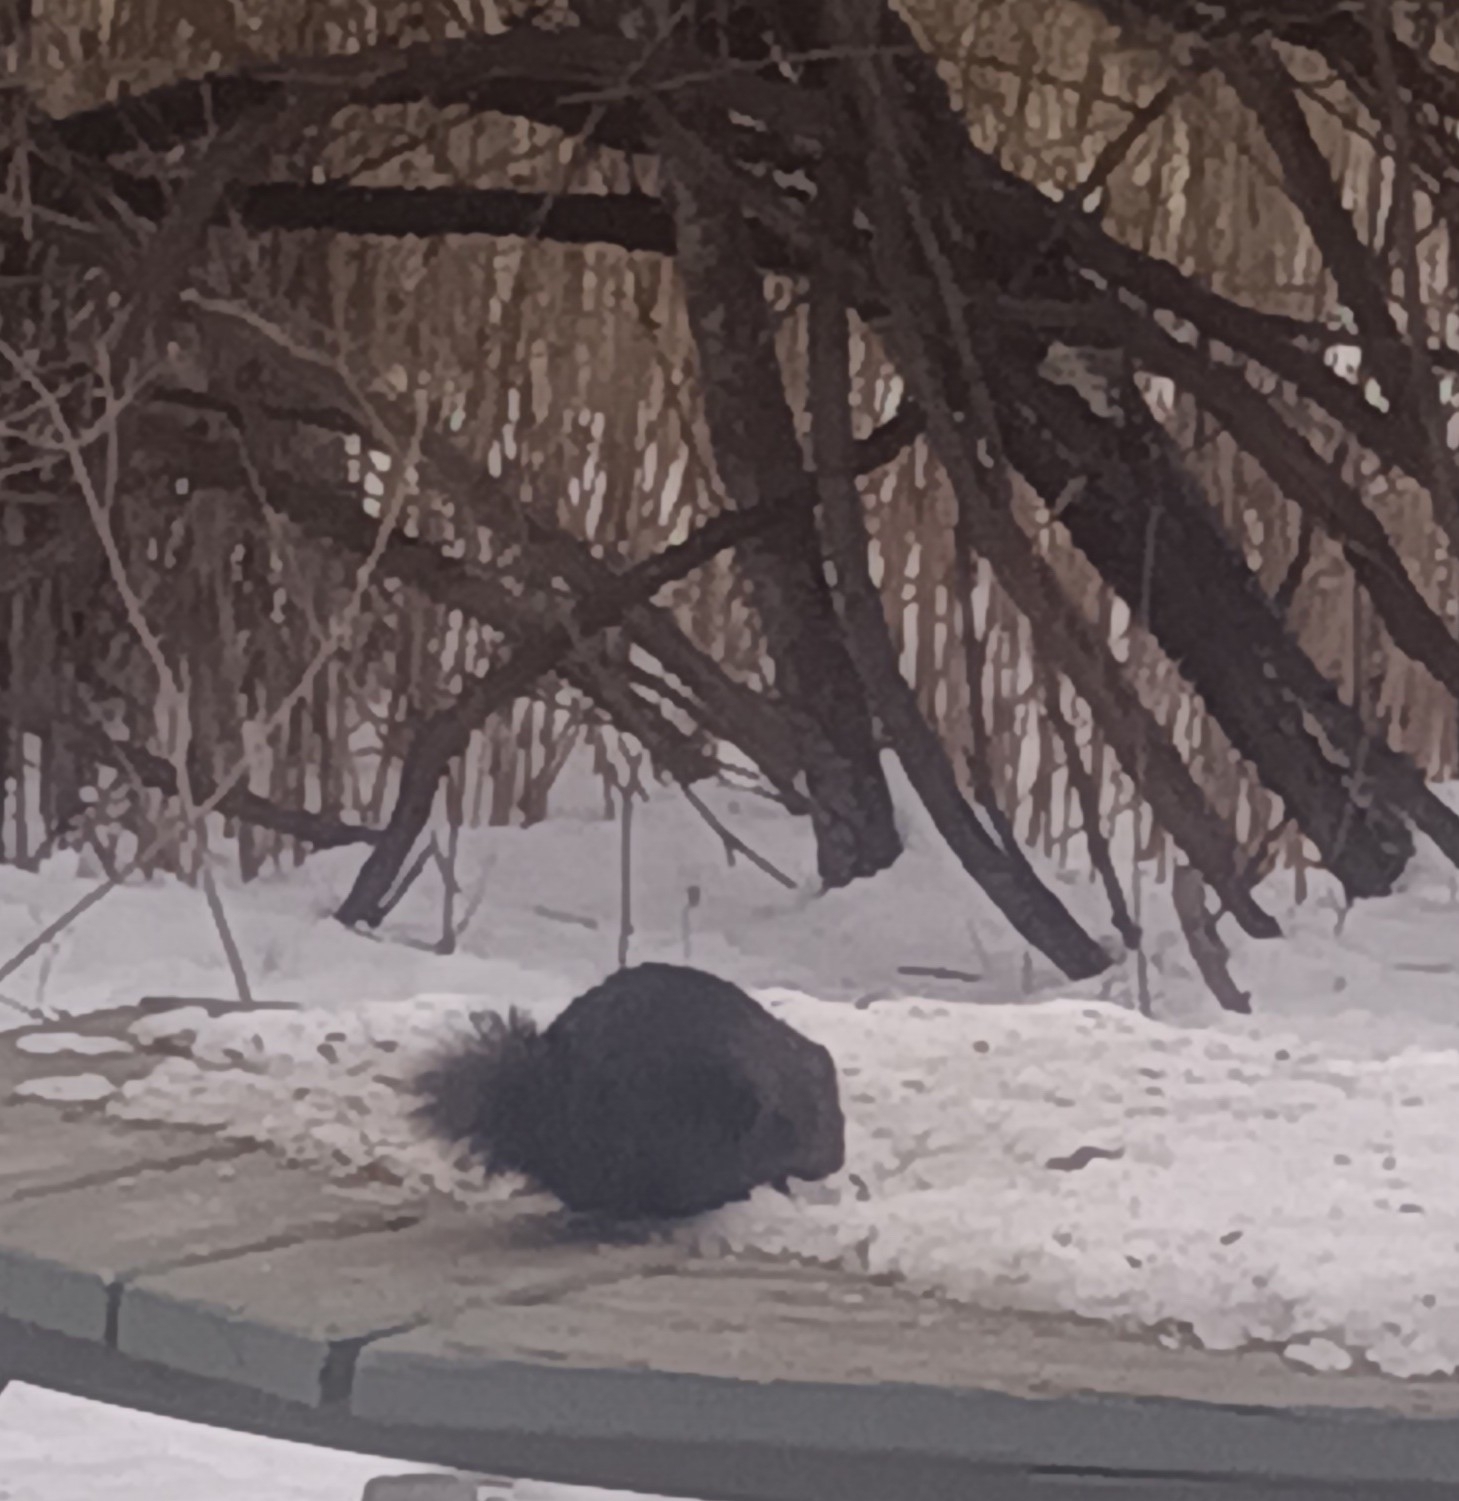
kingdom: Animalia
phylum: Chordata
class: Mammalia
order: Rodentia
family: Sciuridae
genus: Sciurus
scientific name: Sciurus carolinensis
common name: Eastern gray squirrel
